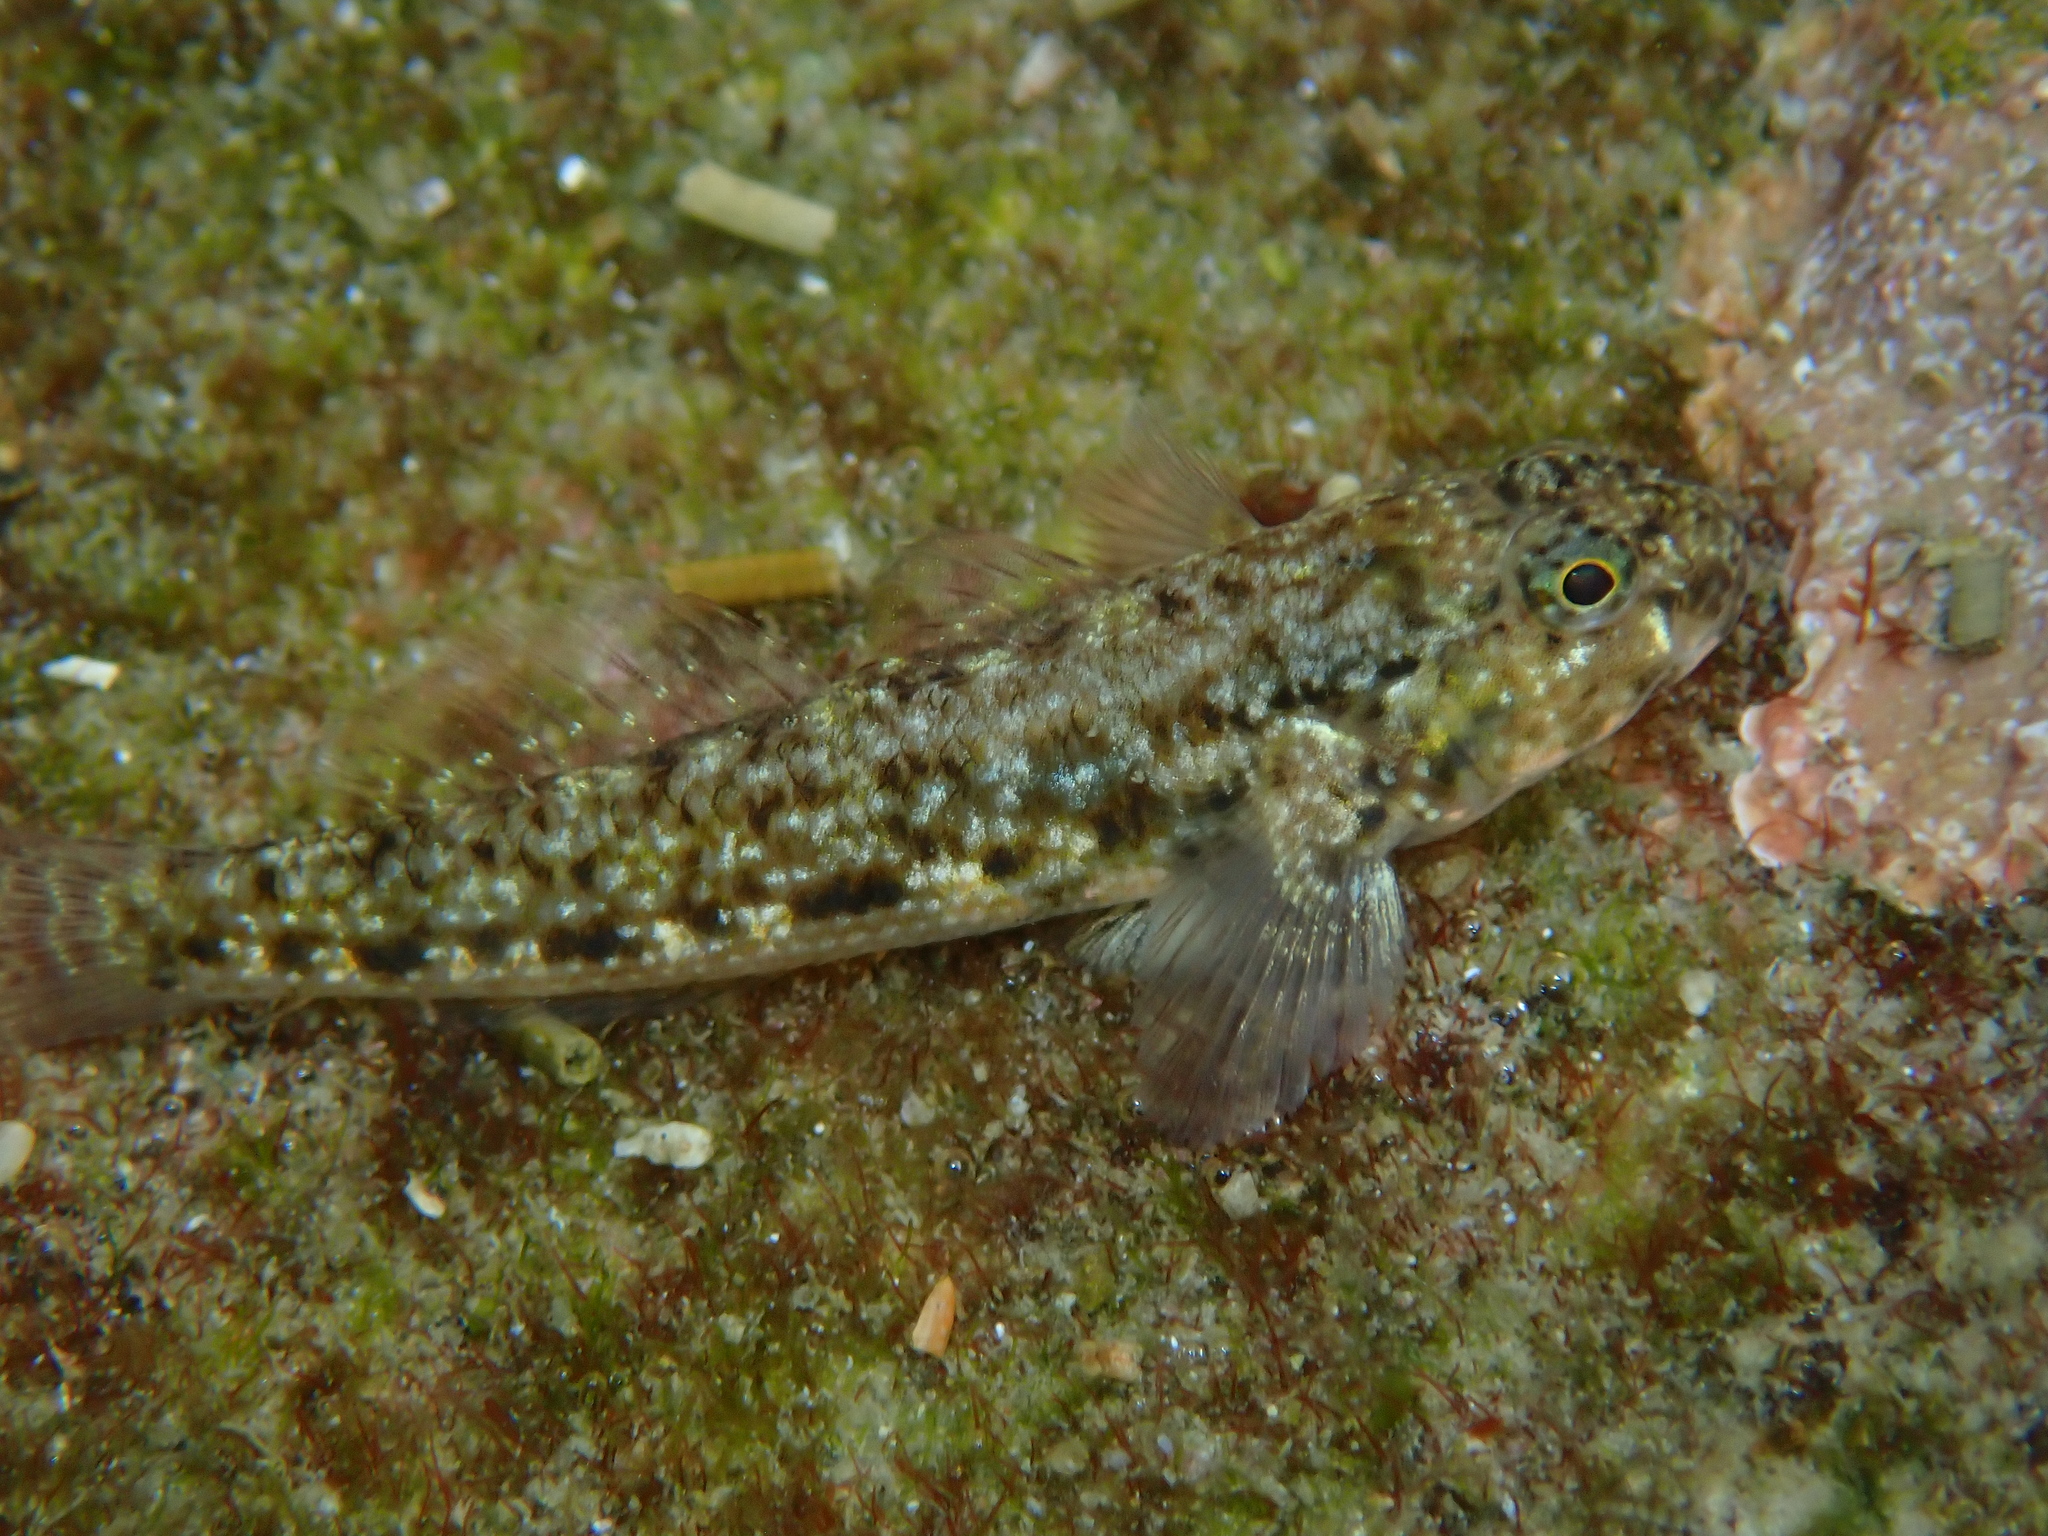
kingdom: Animalia
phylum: Chordata
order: Perciformes
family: Gobiidae
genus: Bathygobius
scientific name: Bathygobius cocosensis
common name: Cocos frillgoby
